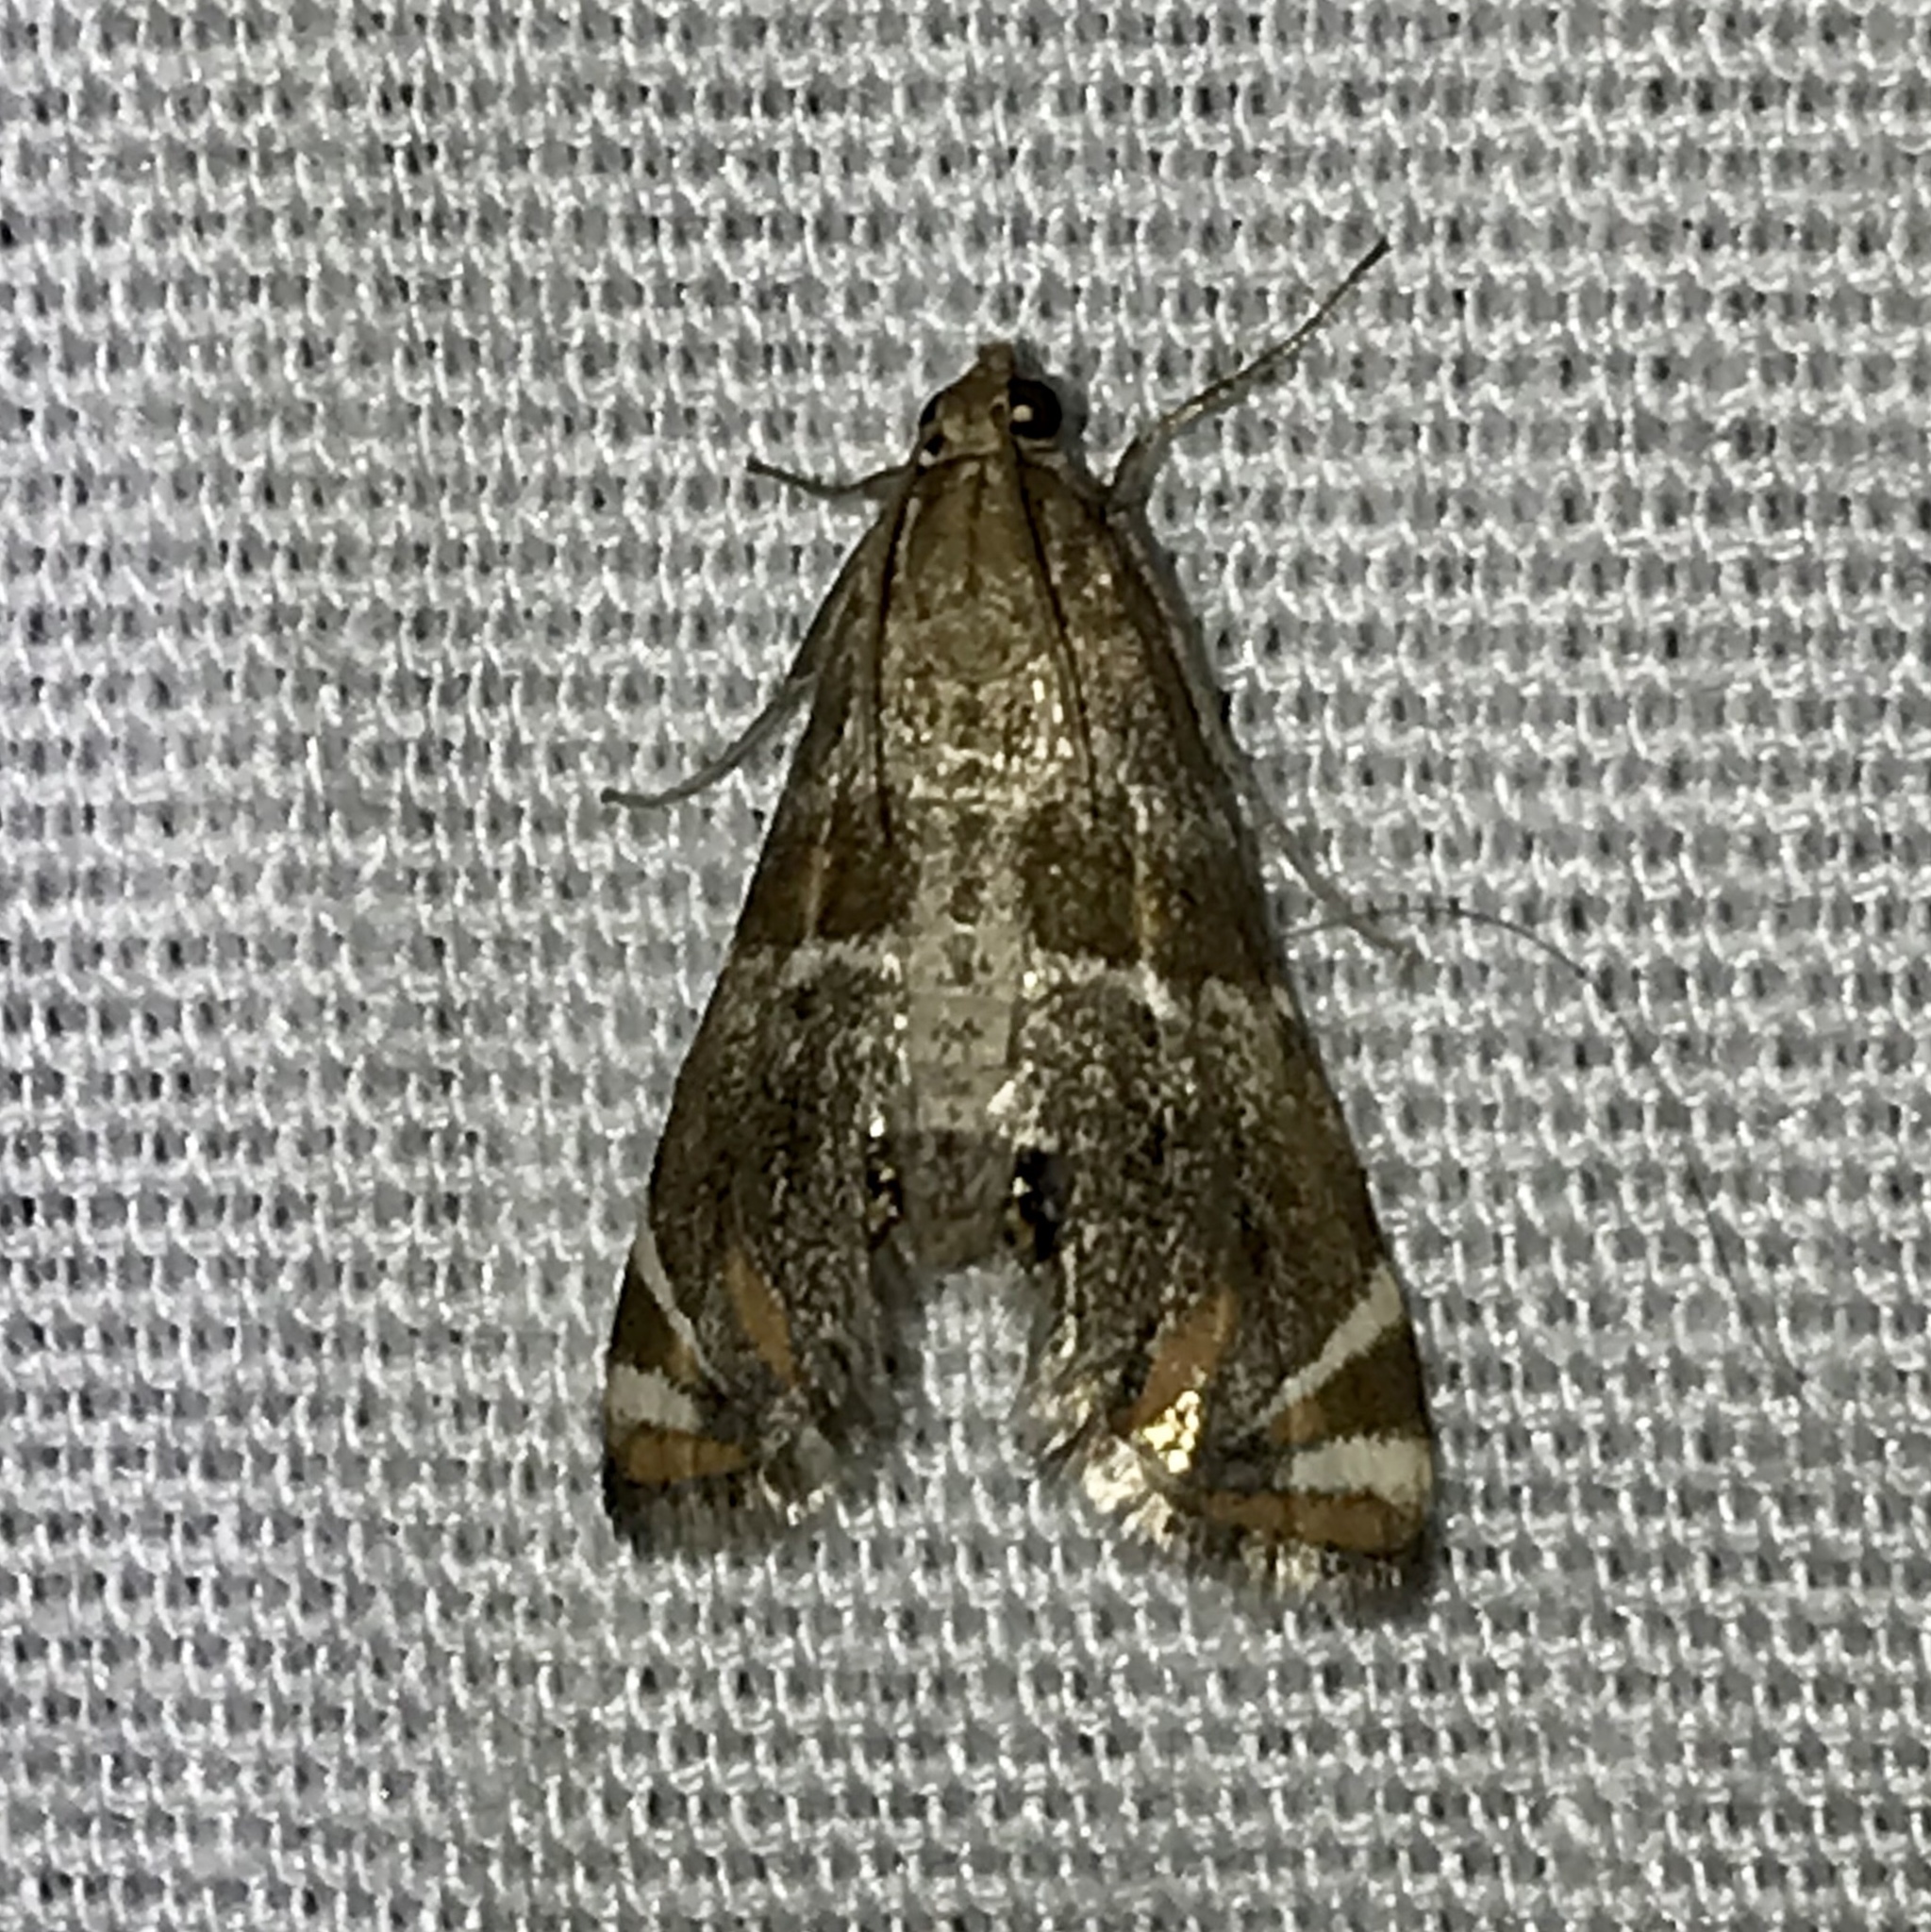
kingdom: Animalia
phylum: Arthropoda
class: Insecta
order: Lepidoptera
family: Crambidae
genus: Petrophila
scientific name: Petrophila jaliscalis
